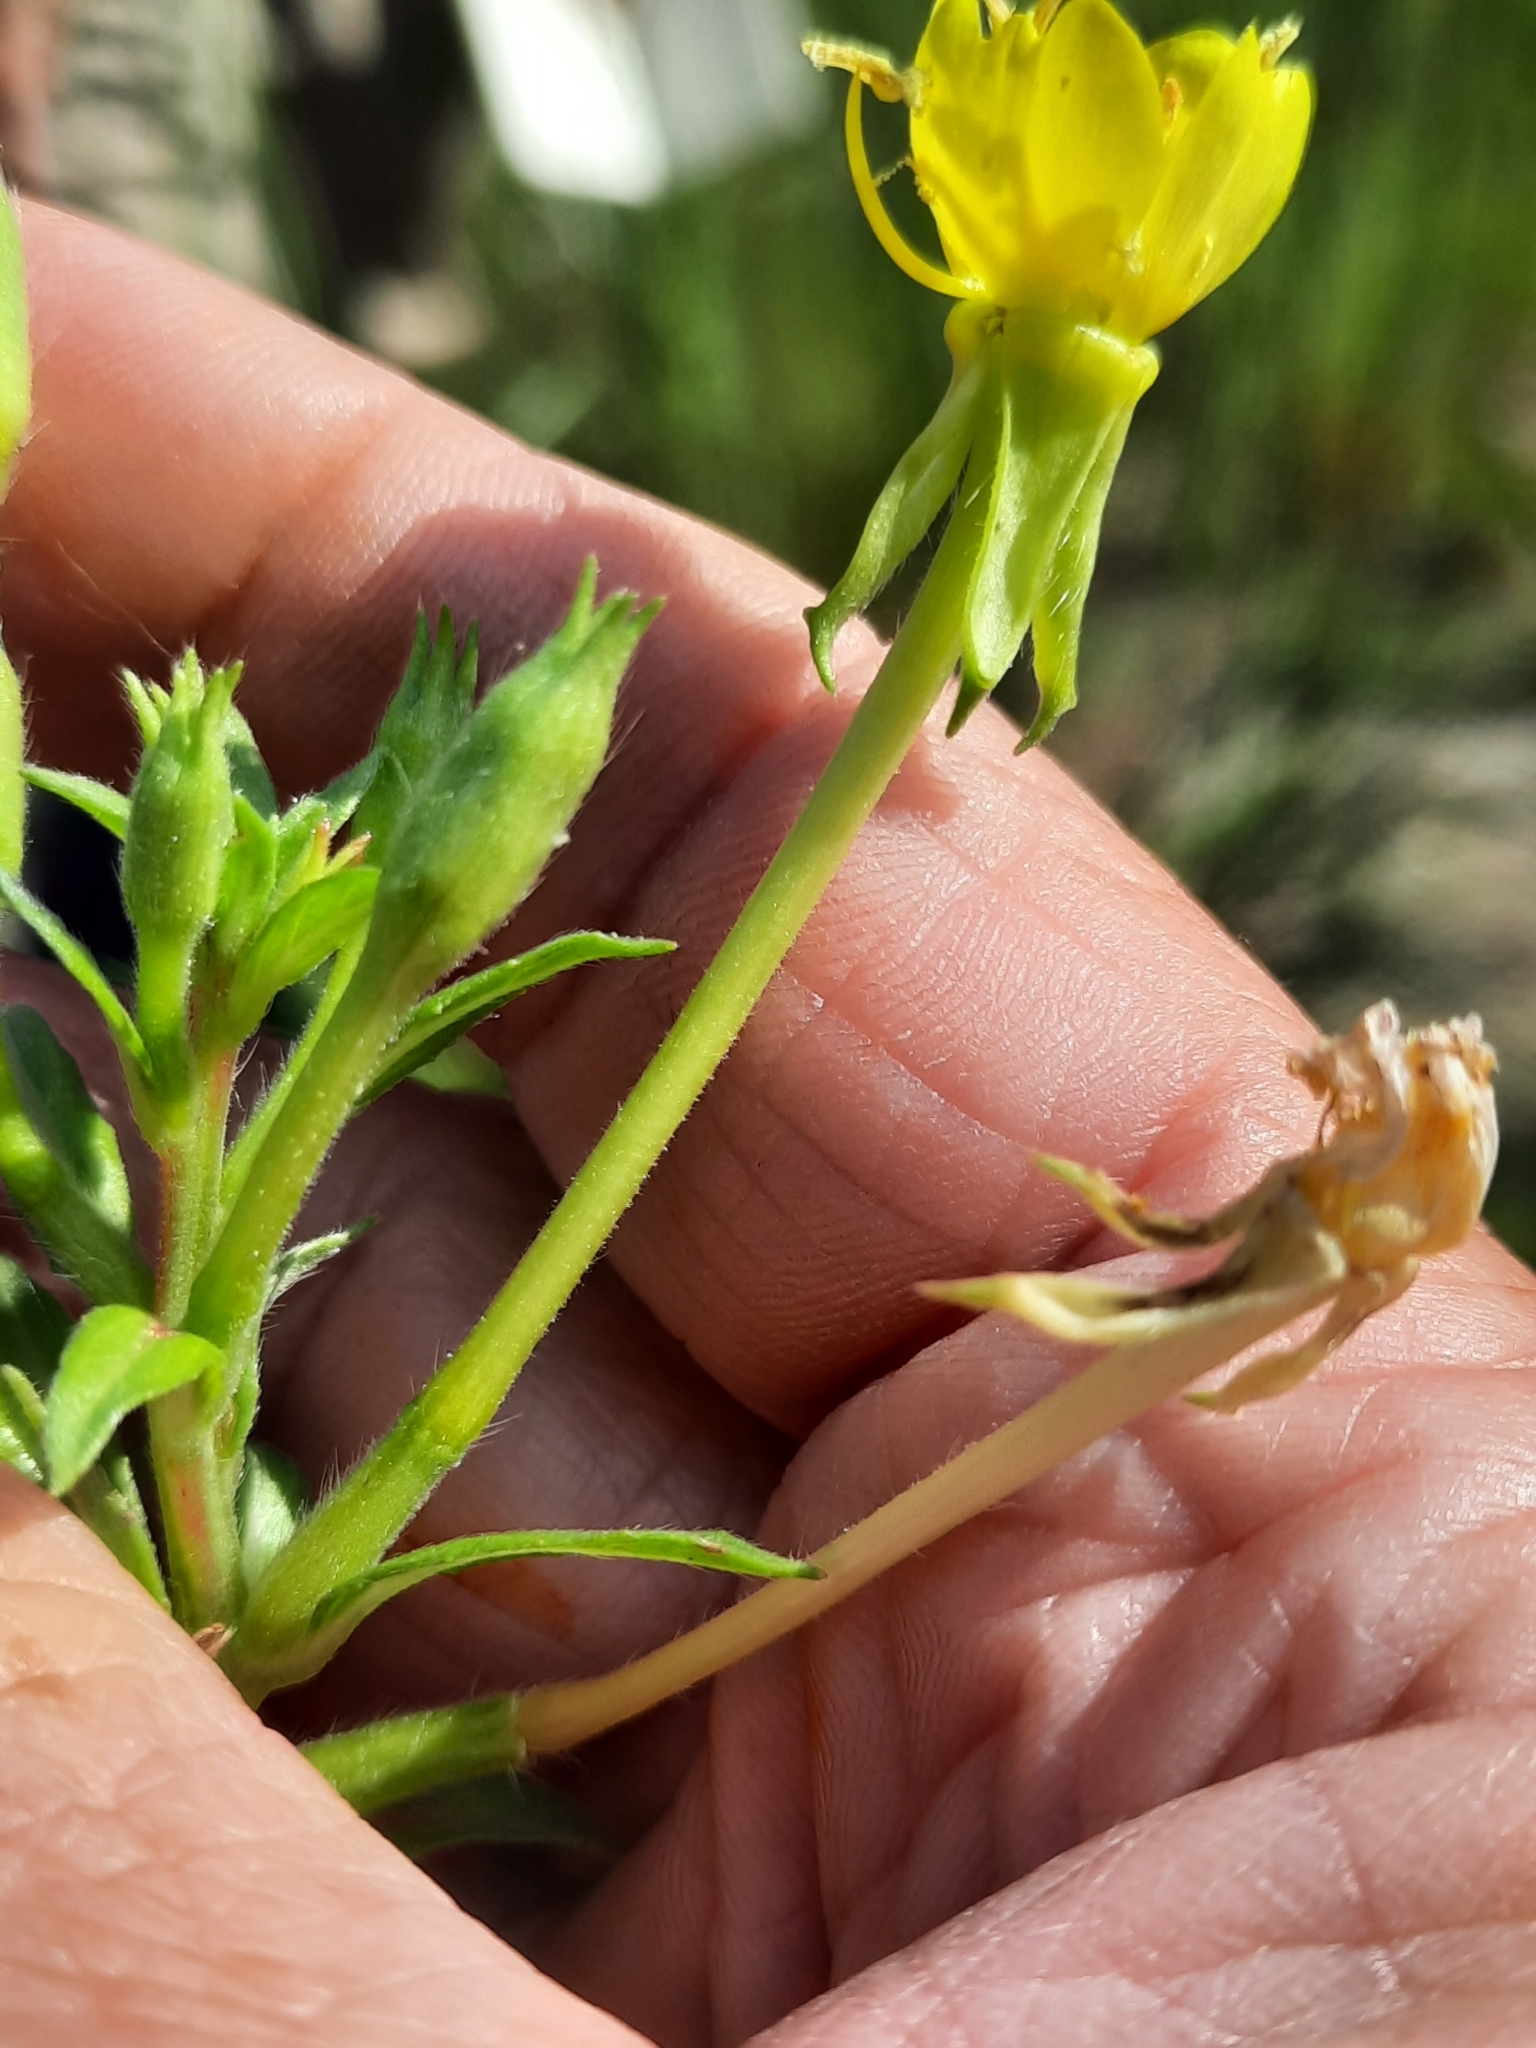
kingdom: Plantae
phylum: Tracheophyta
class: Magnoliopsida
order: Myrtales
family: Onagraceae
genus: Oenothera
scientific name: Oenothera parviflora
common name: Least evening-primrose
